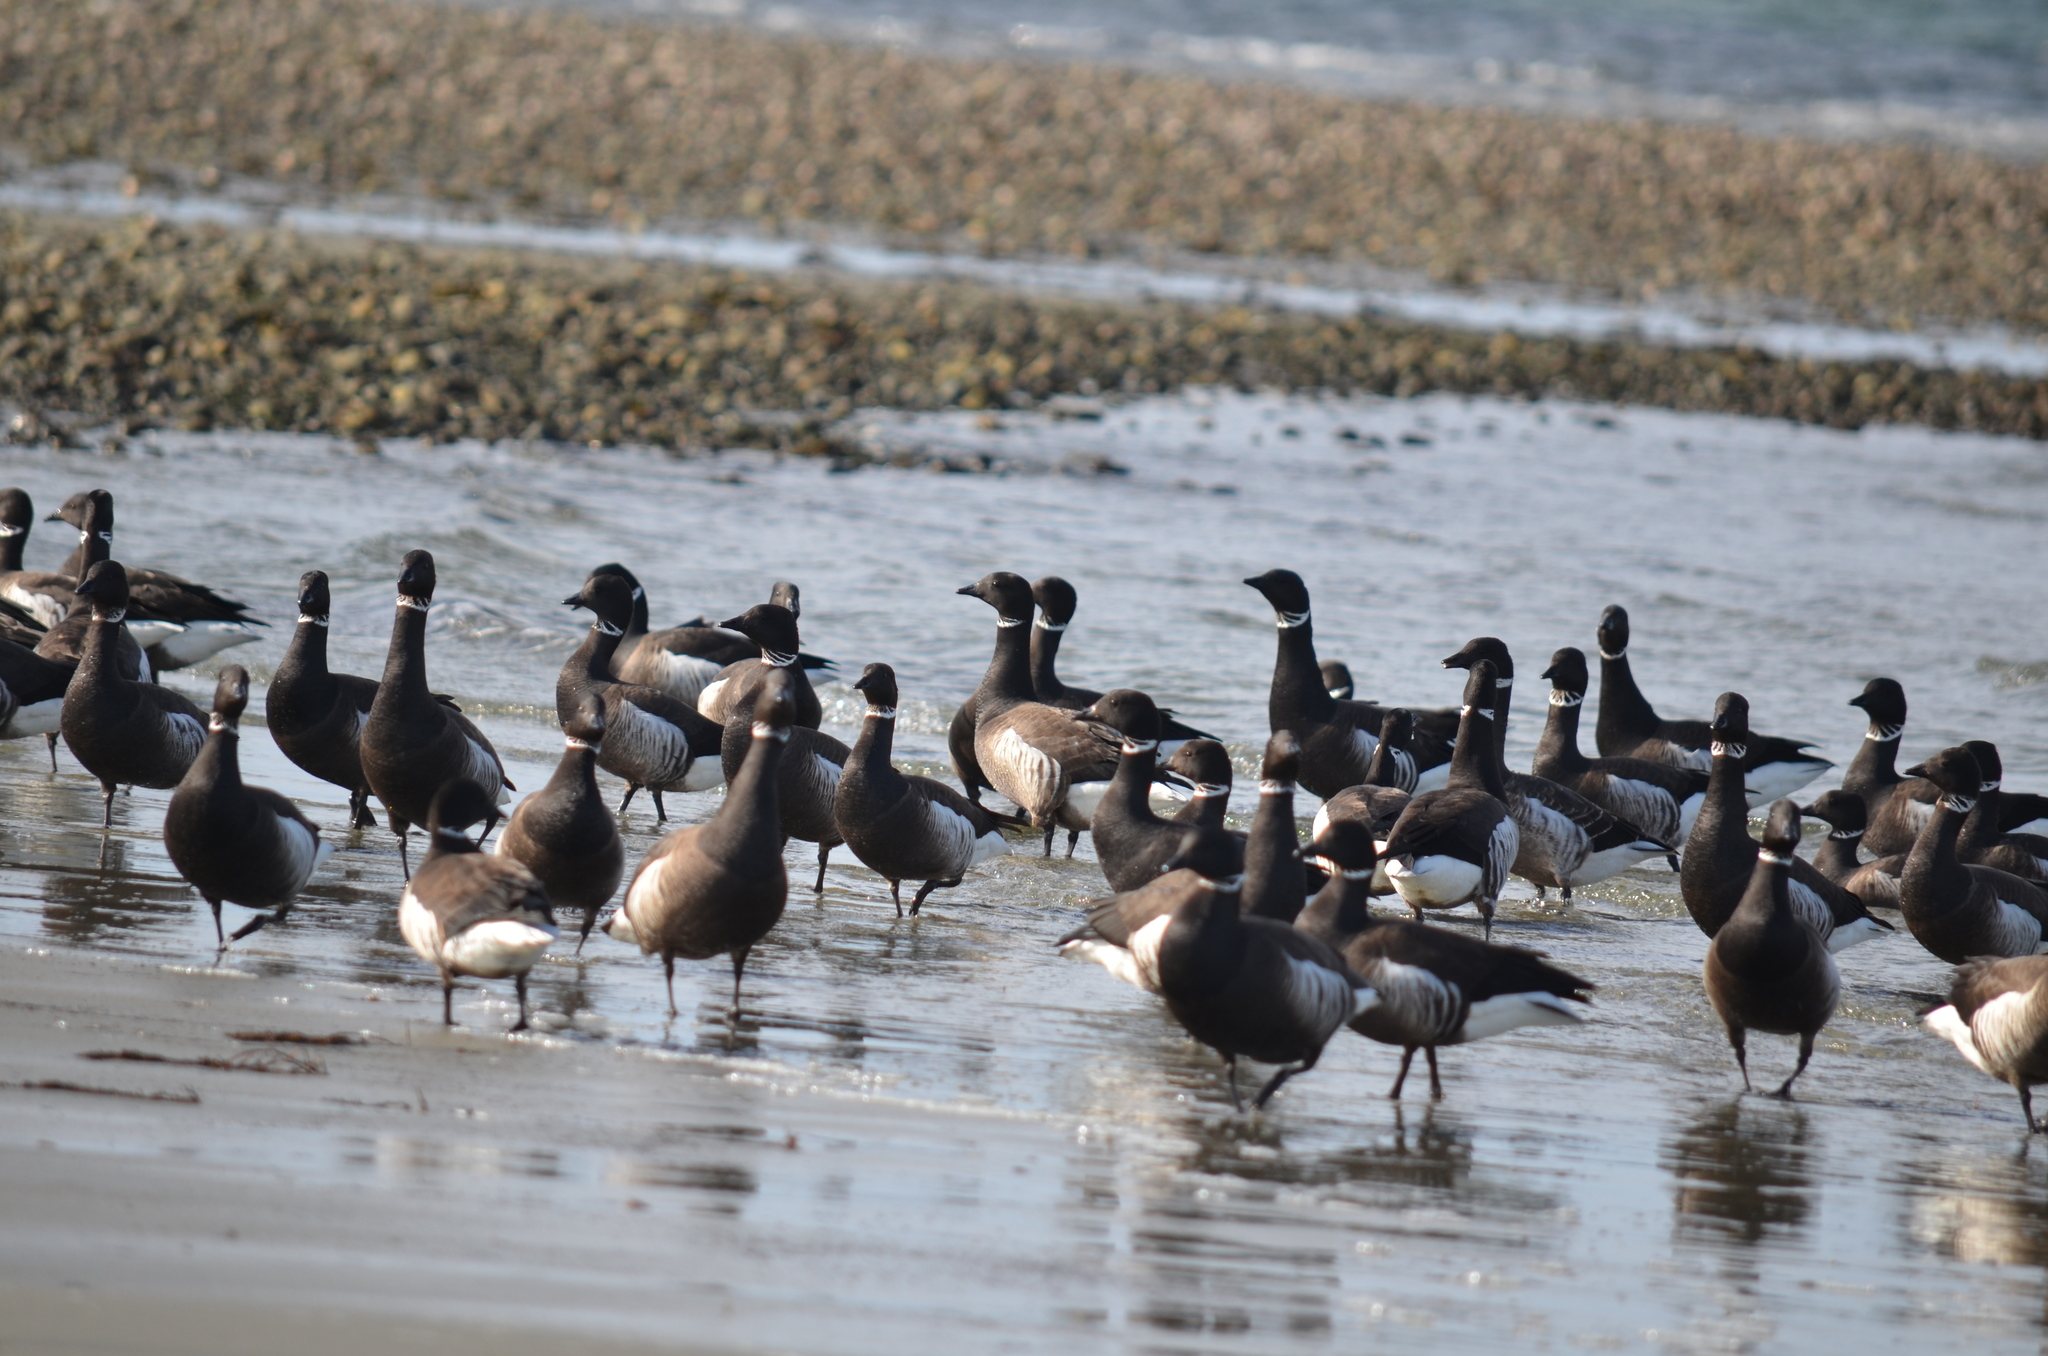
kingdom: Animalia
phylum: Chordata
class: Aves
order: Anseriformes
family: Anatidae
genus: Branta
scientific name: Branta bernicla
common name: Brant goose
